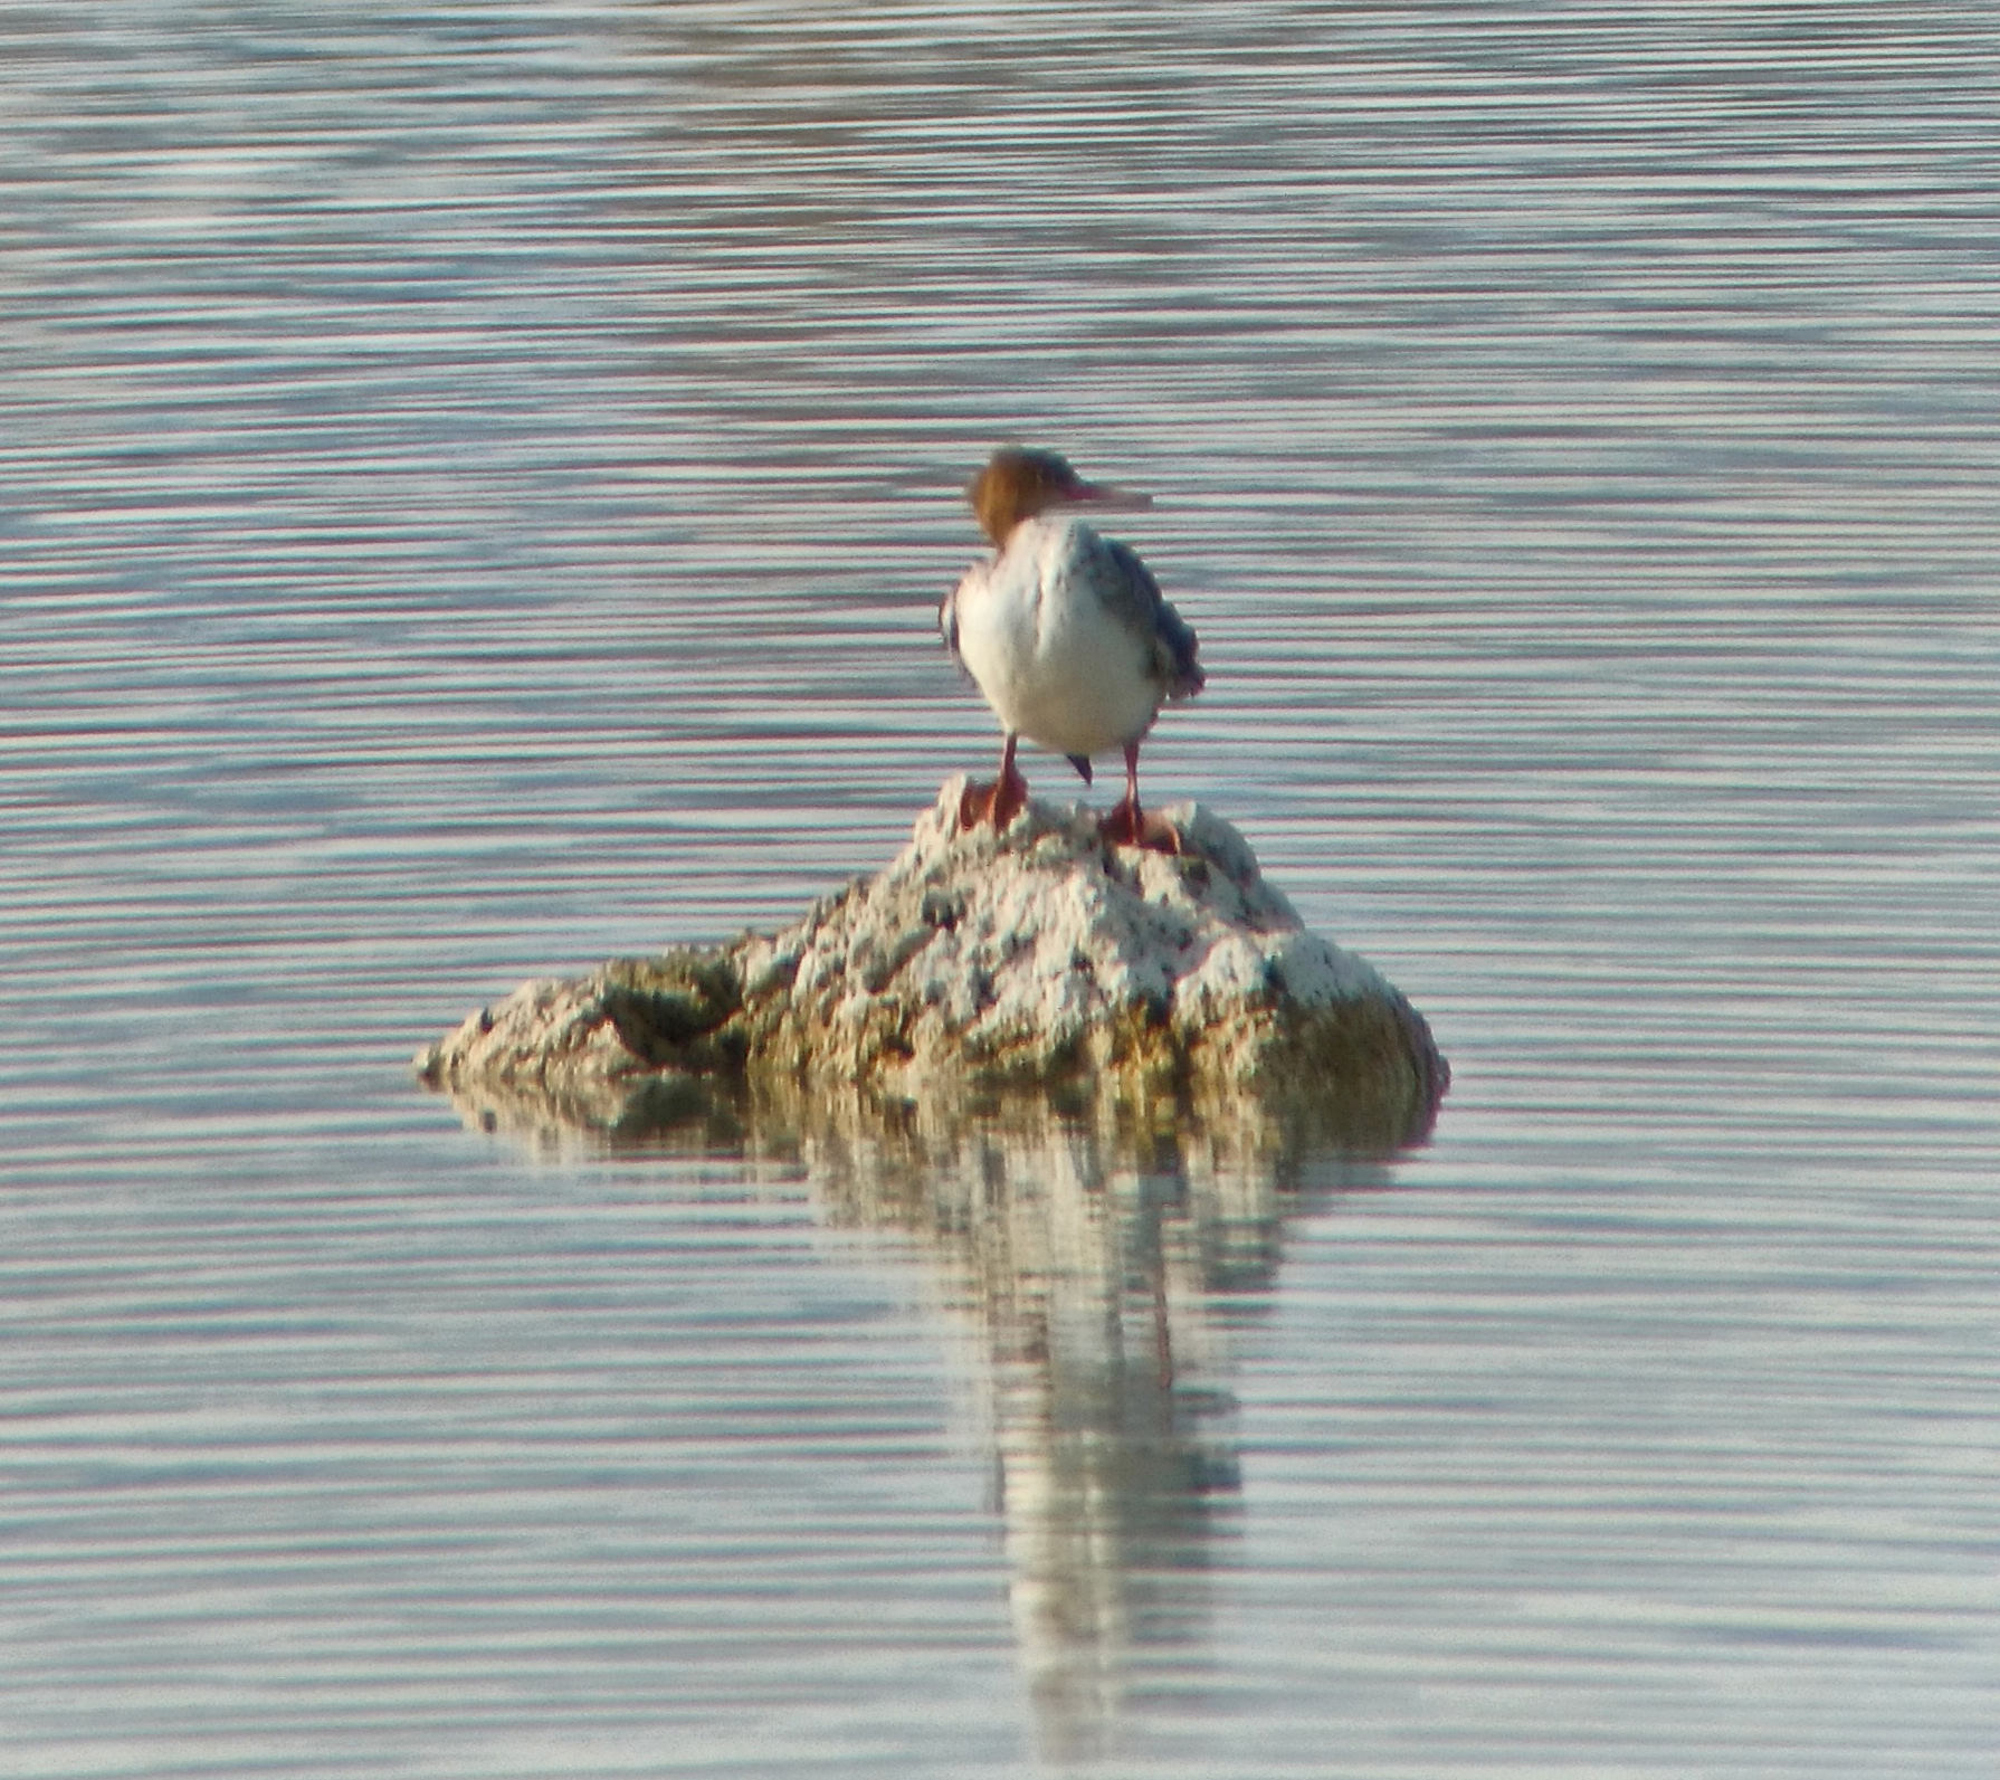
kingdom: Animalia
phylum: Chordata
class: Aves
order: Anseriformes
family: Anatidae
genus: Mergus
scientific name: Mergus serrator
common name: Red-breasted merganser
